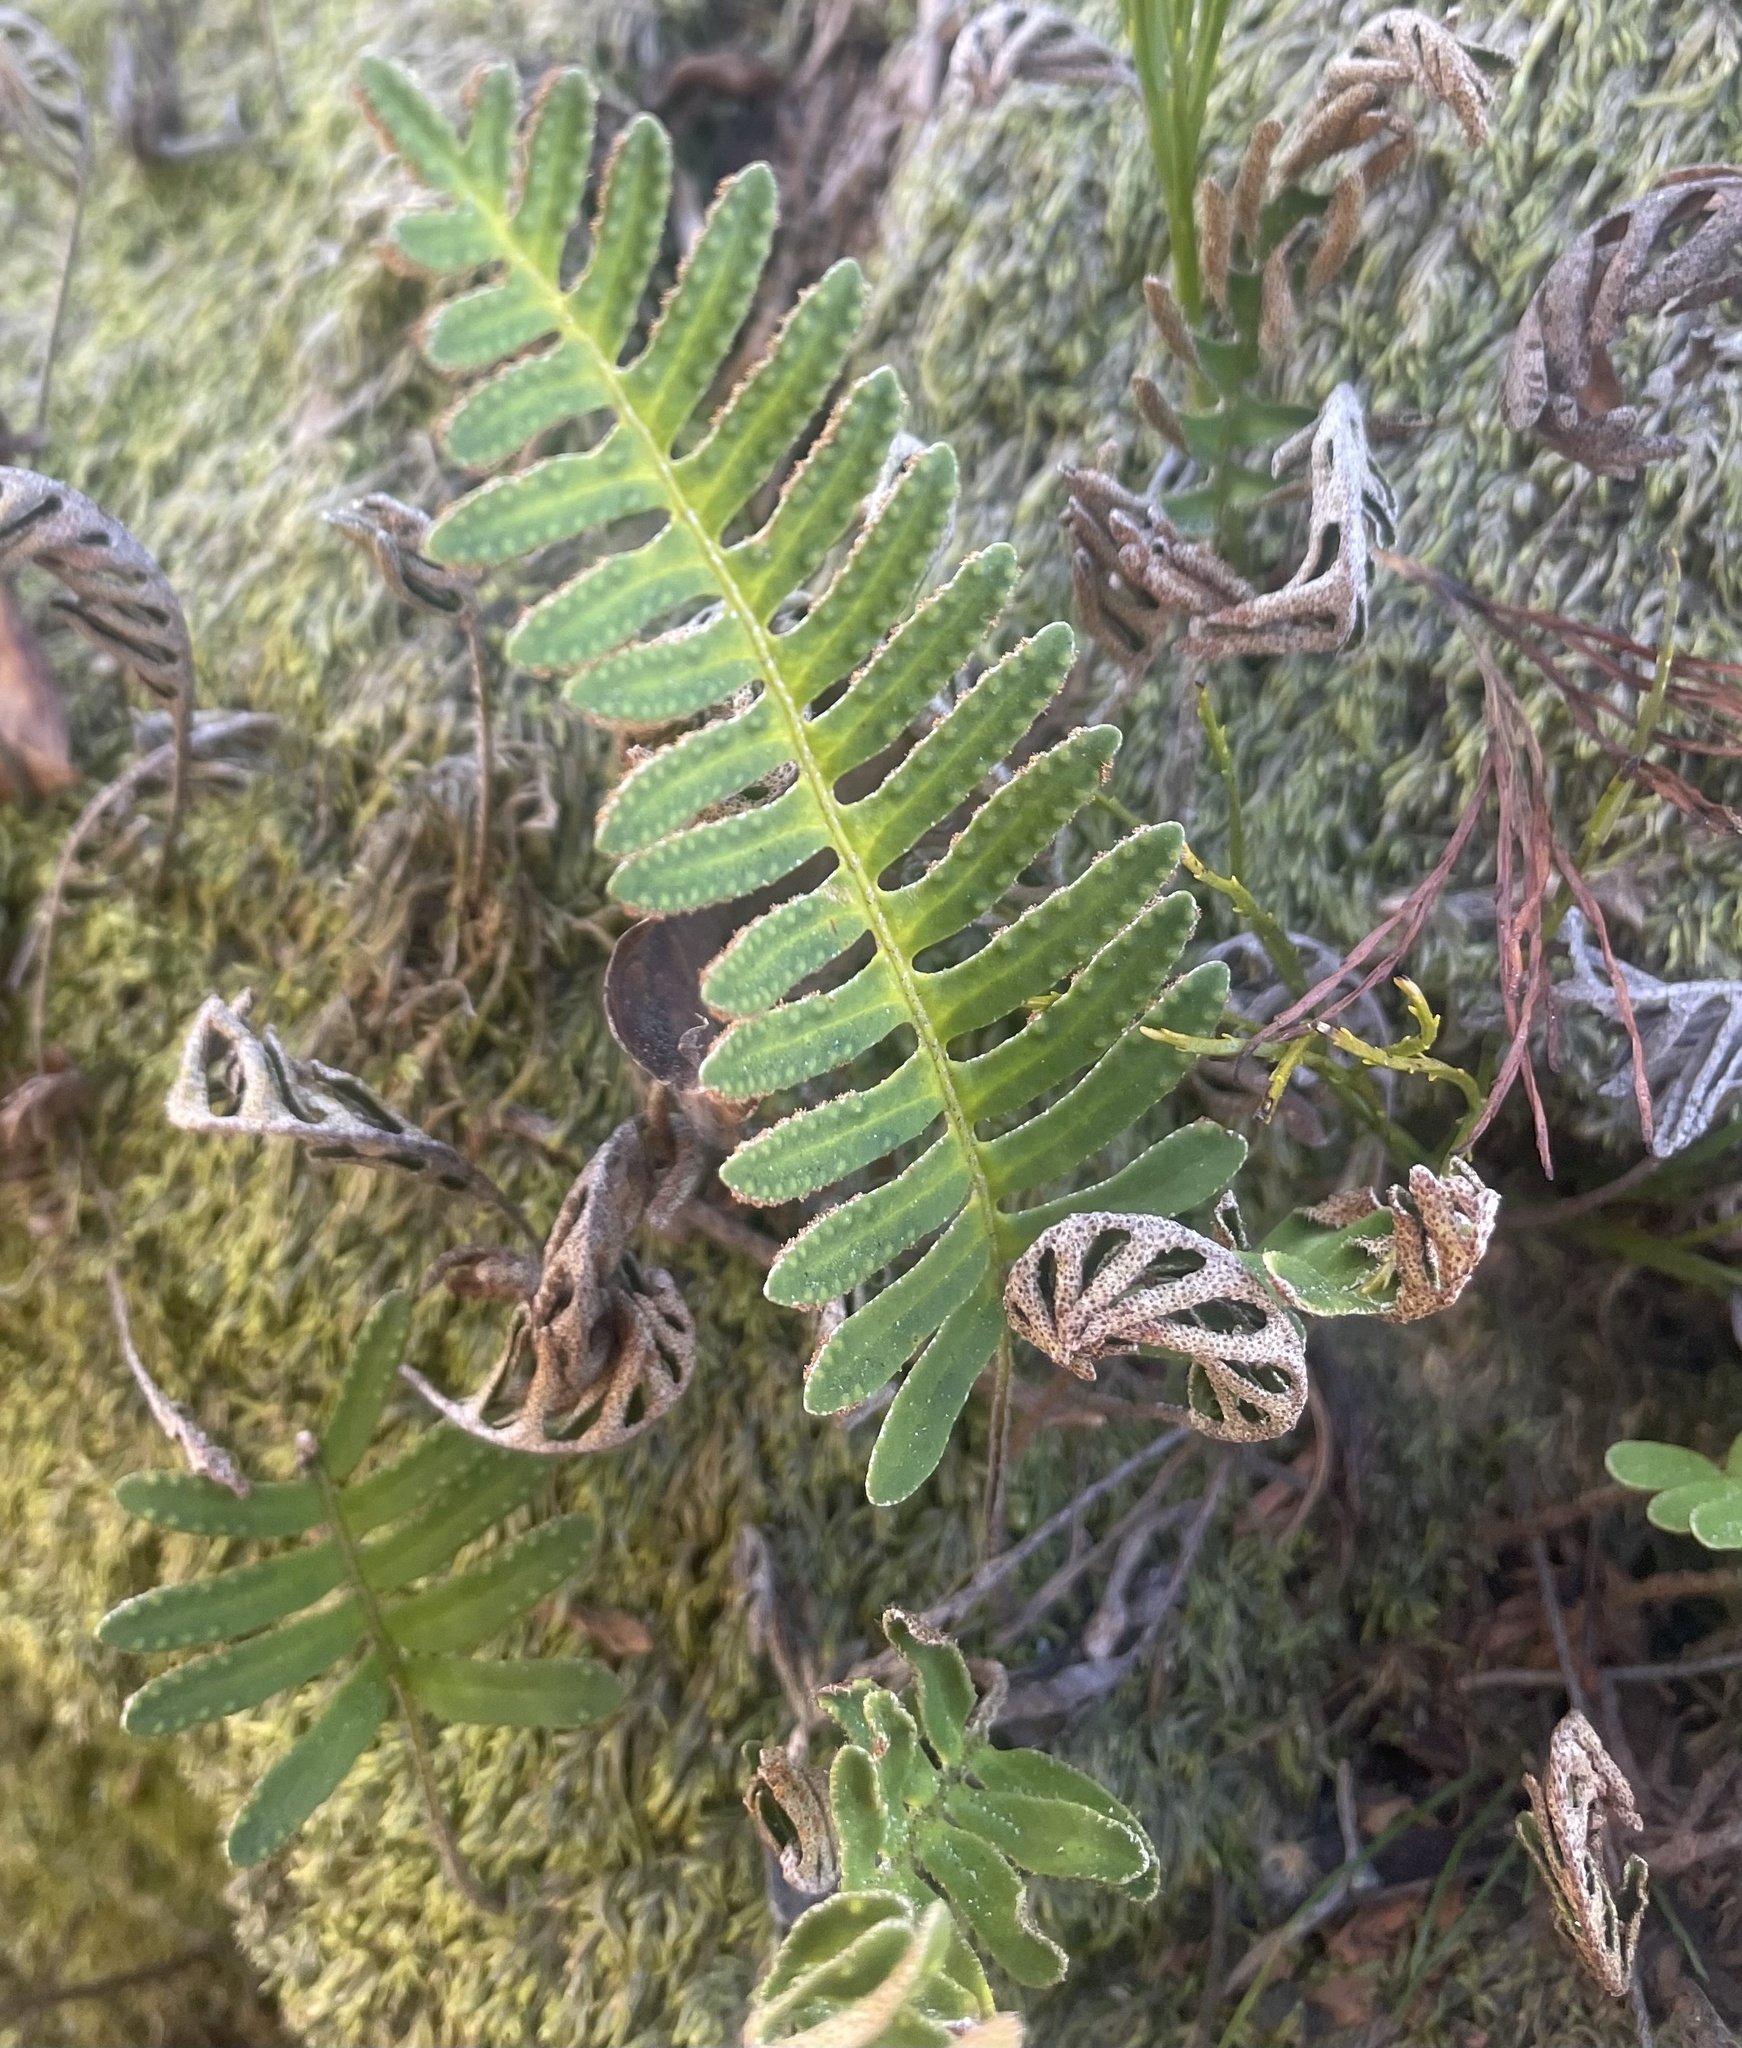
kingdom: Plantae
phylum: Tracheophyta
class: Polypodiopsida
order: Polypodiales
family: Polypodiaceae
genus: Pleopeltis
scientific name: Pleopeltis michauxiana
